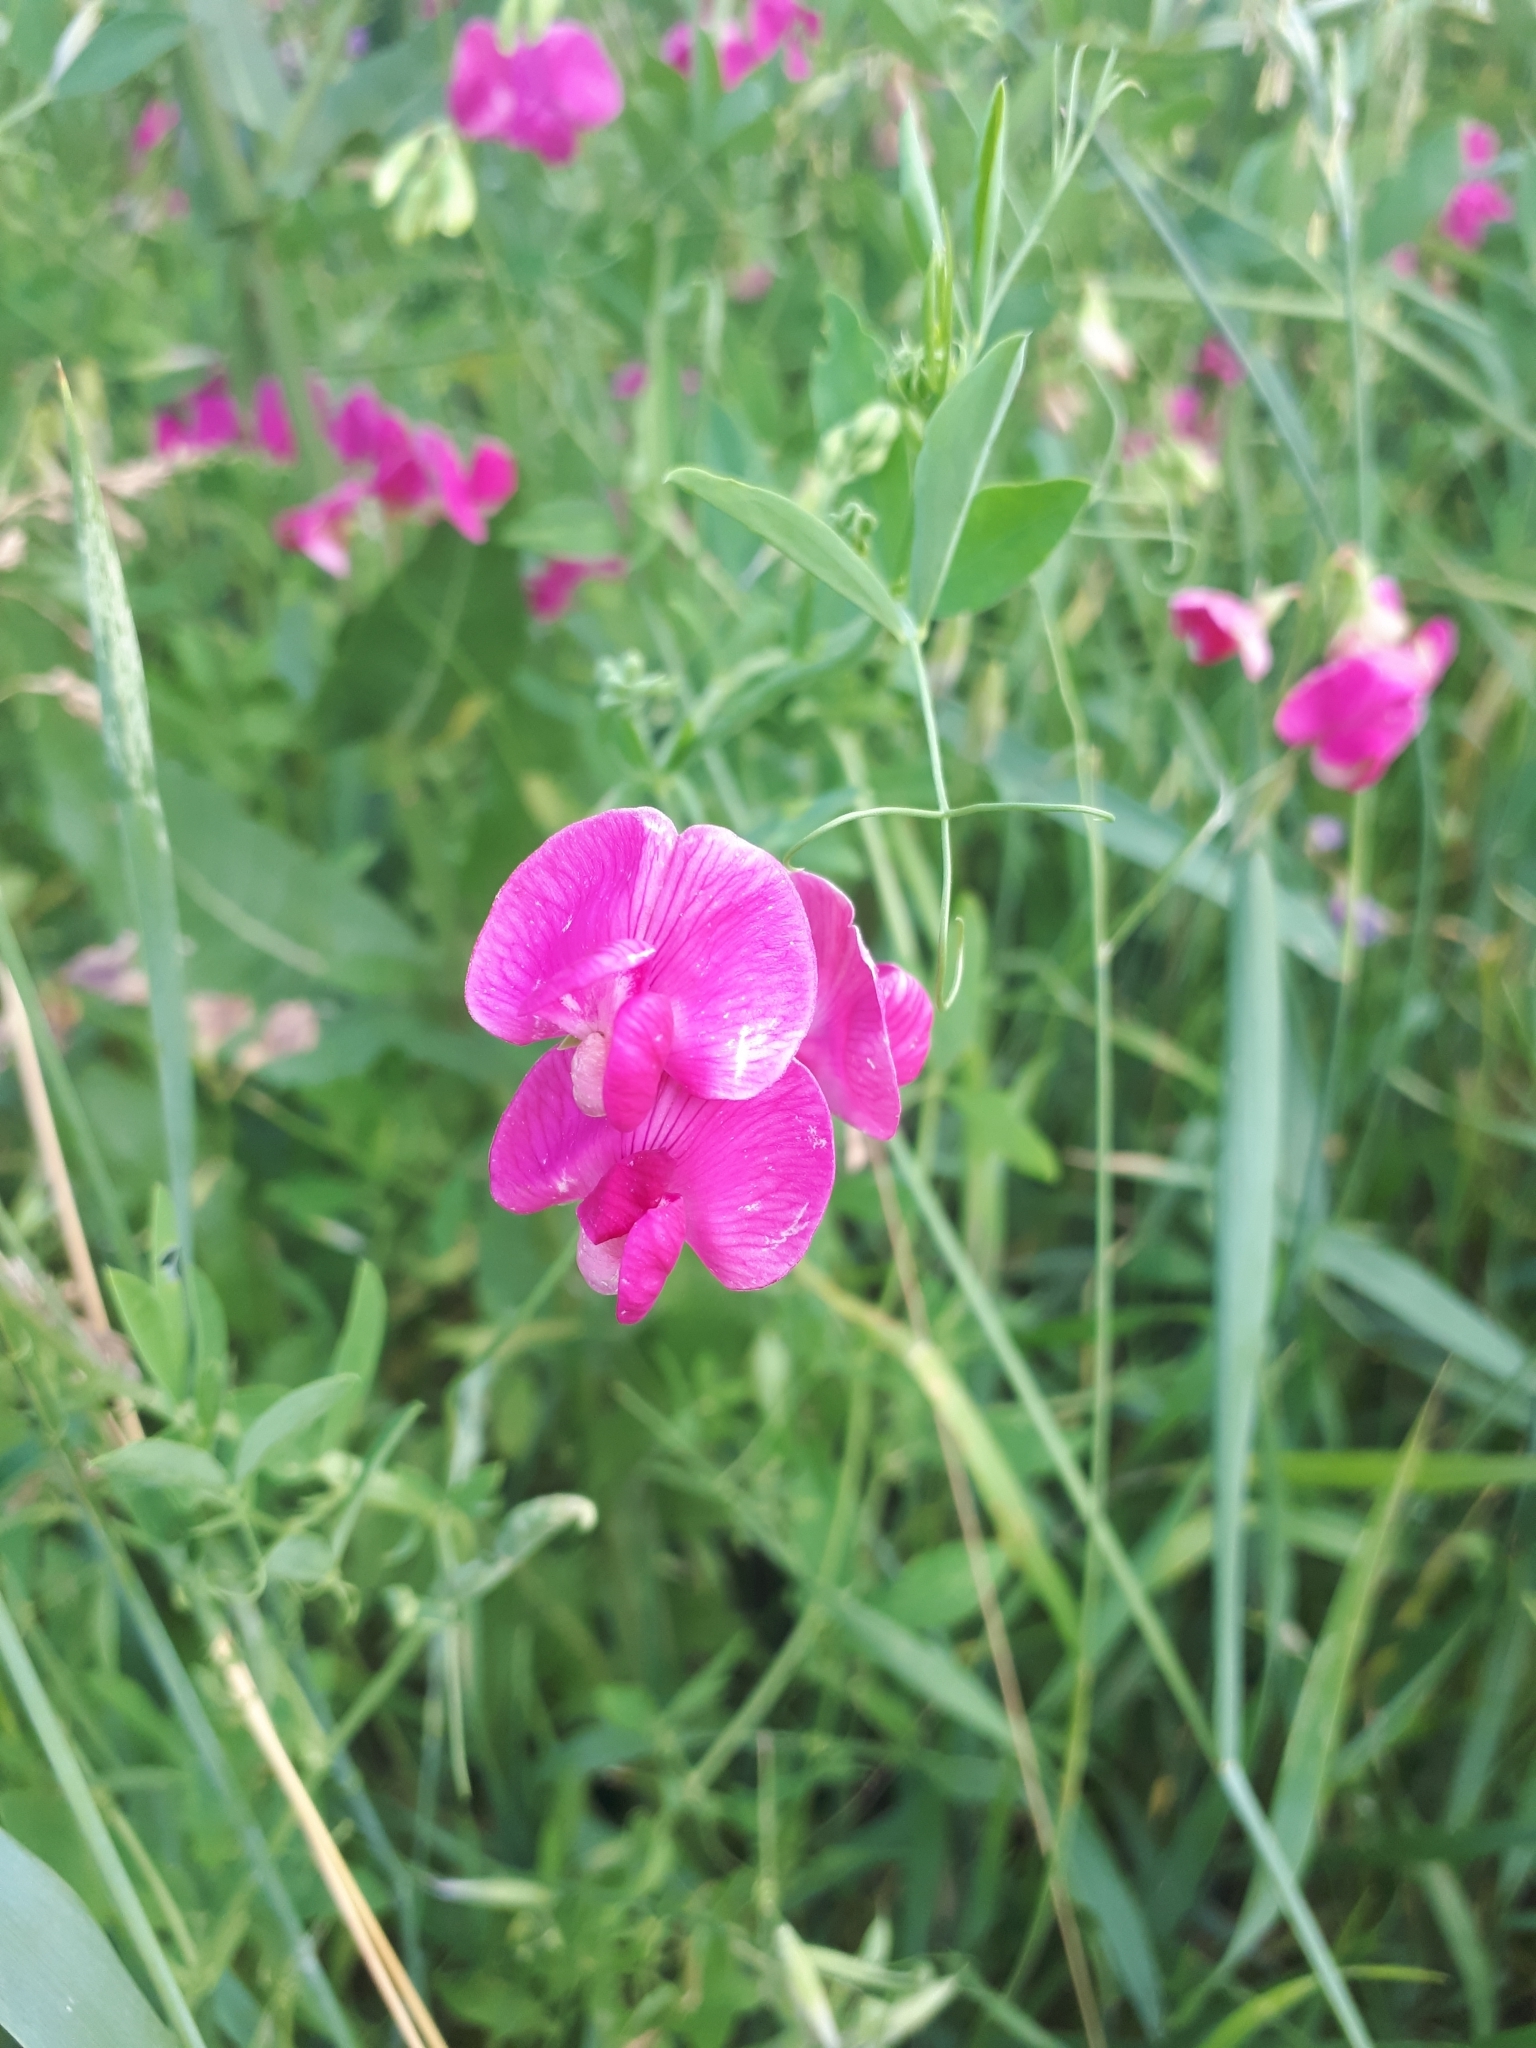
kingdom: Plantae
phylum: Tracheophyta
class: Magnoliopsida
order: Fabales
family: Fabaceae
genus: Lathyrus
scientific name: Lathyrus tuberosus
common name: Tuberous pea
